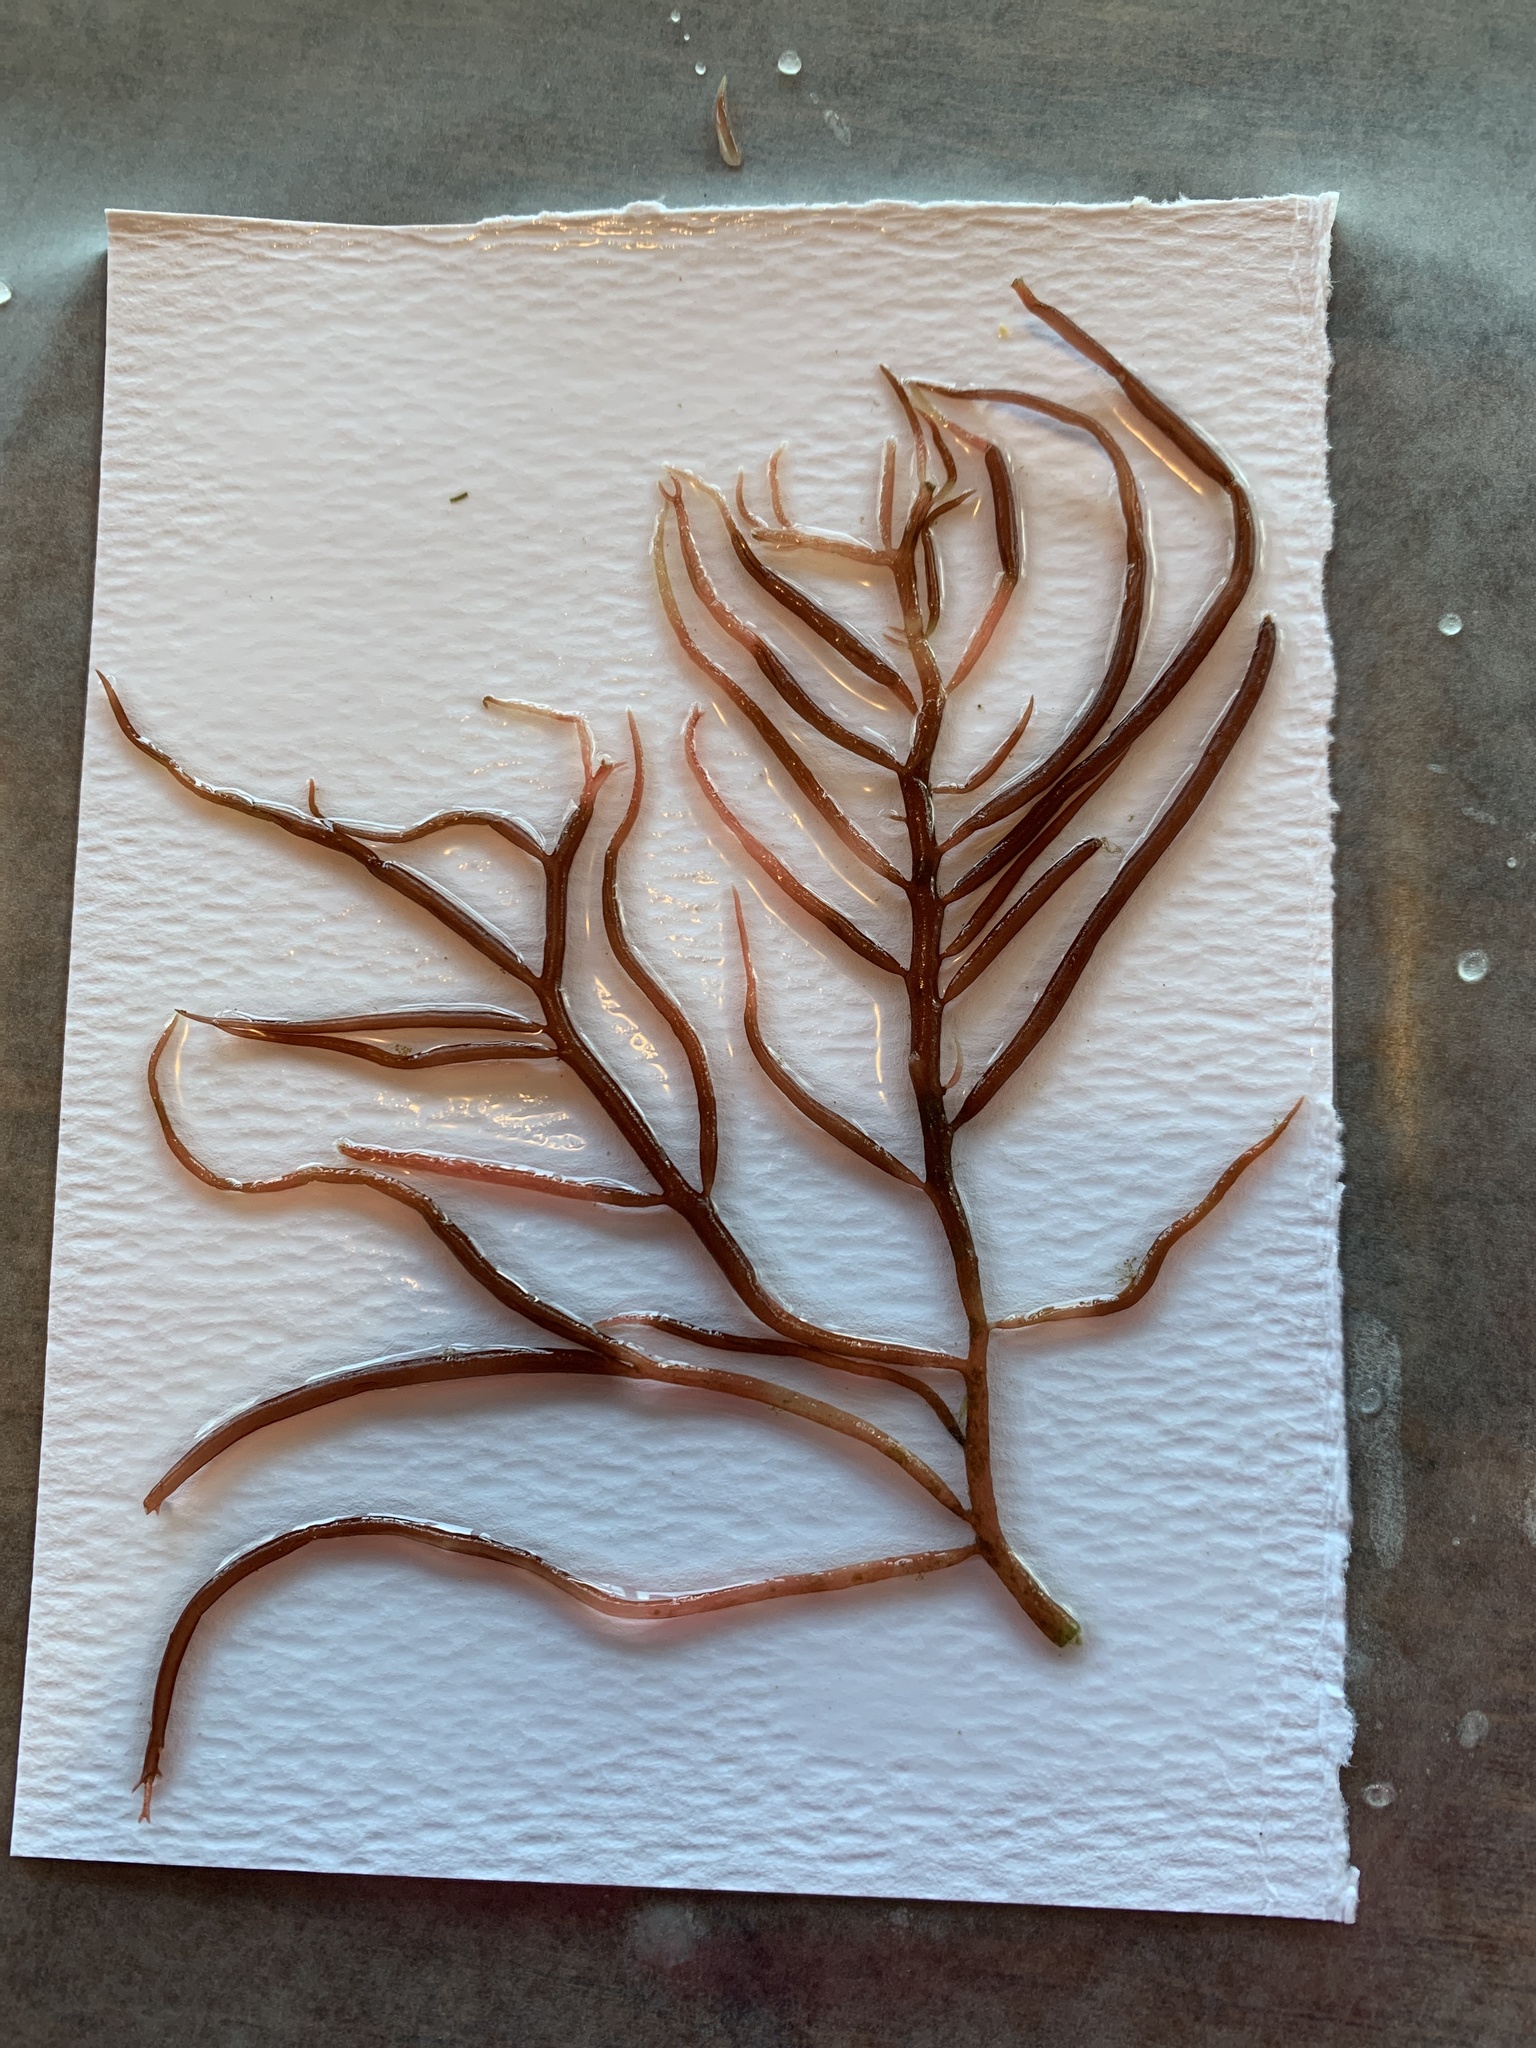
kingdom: Plantae
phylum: Rhodophyta
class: Florideophyceae
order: Gigartinales
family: Solieriaceae
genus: Sarcodiotheca
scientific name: Sarcodiotheca gaudichaudii
